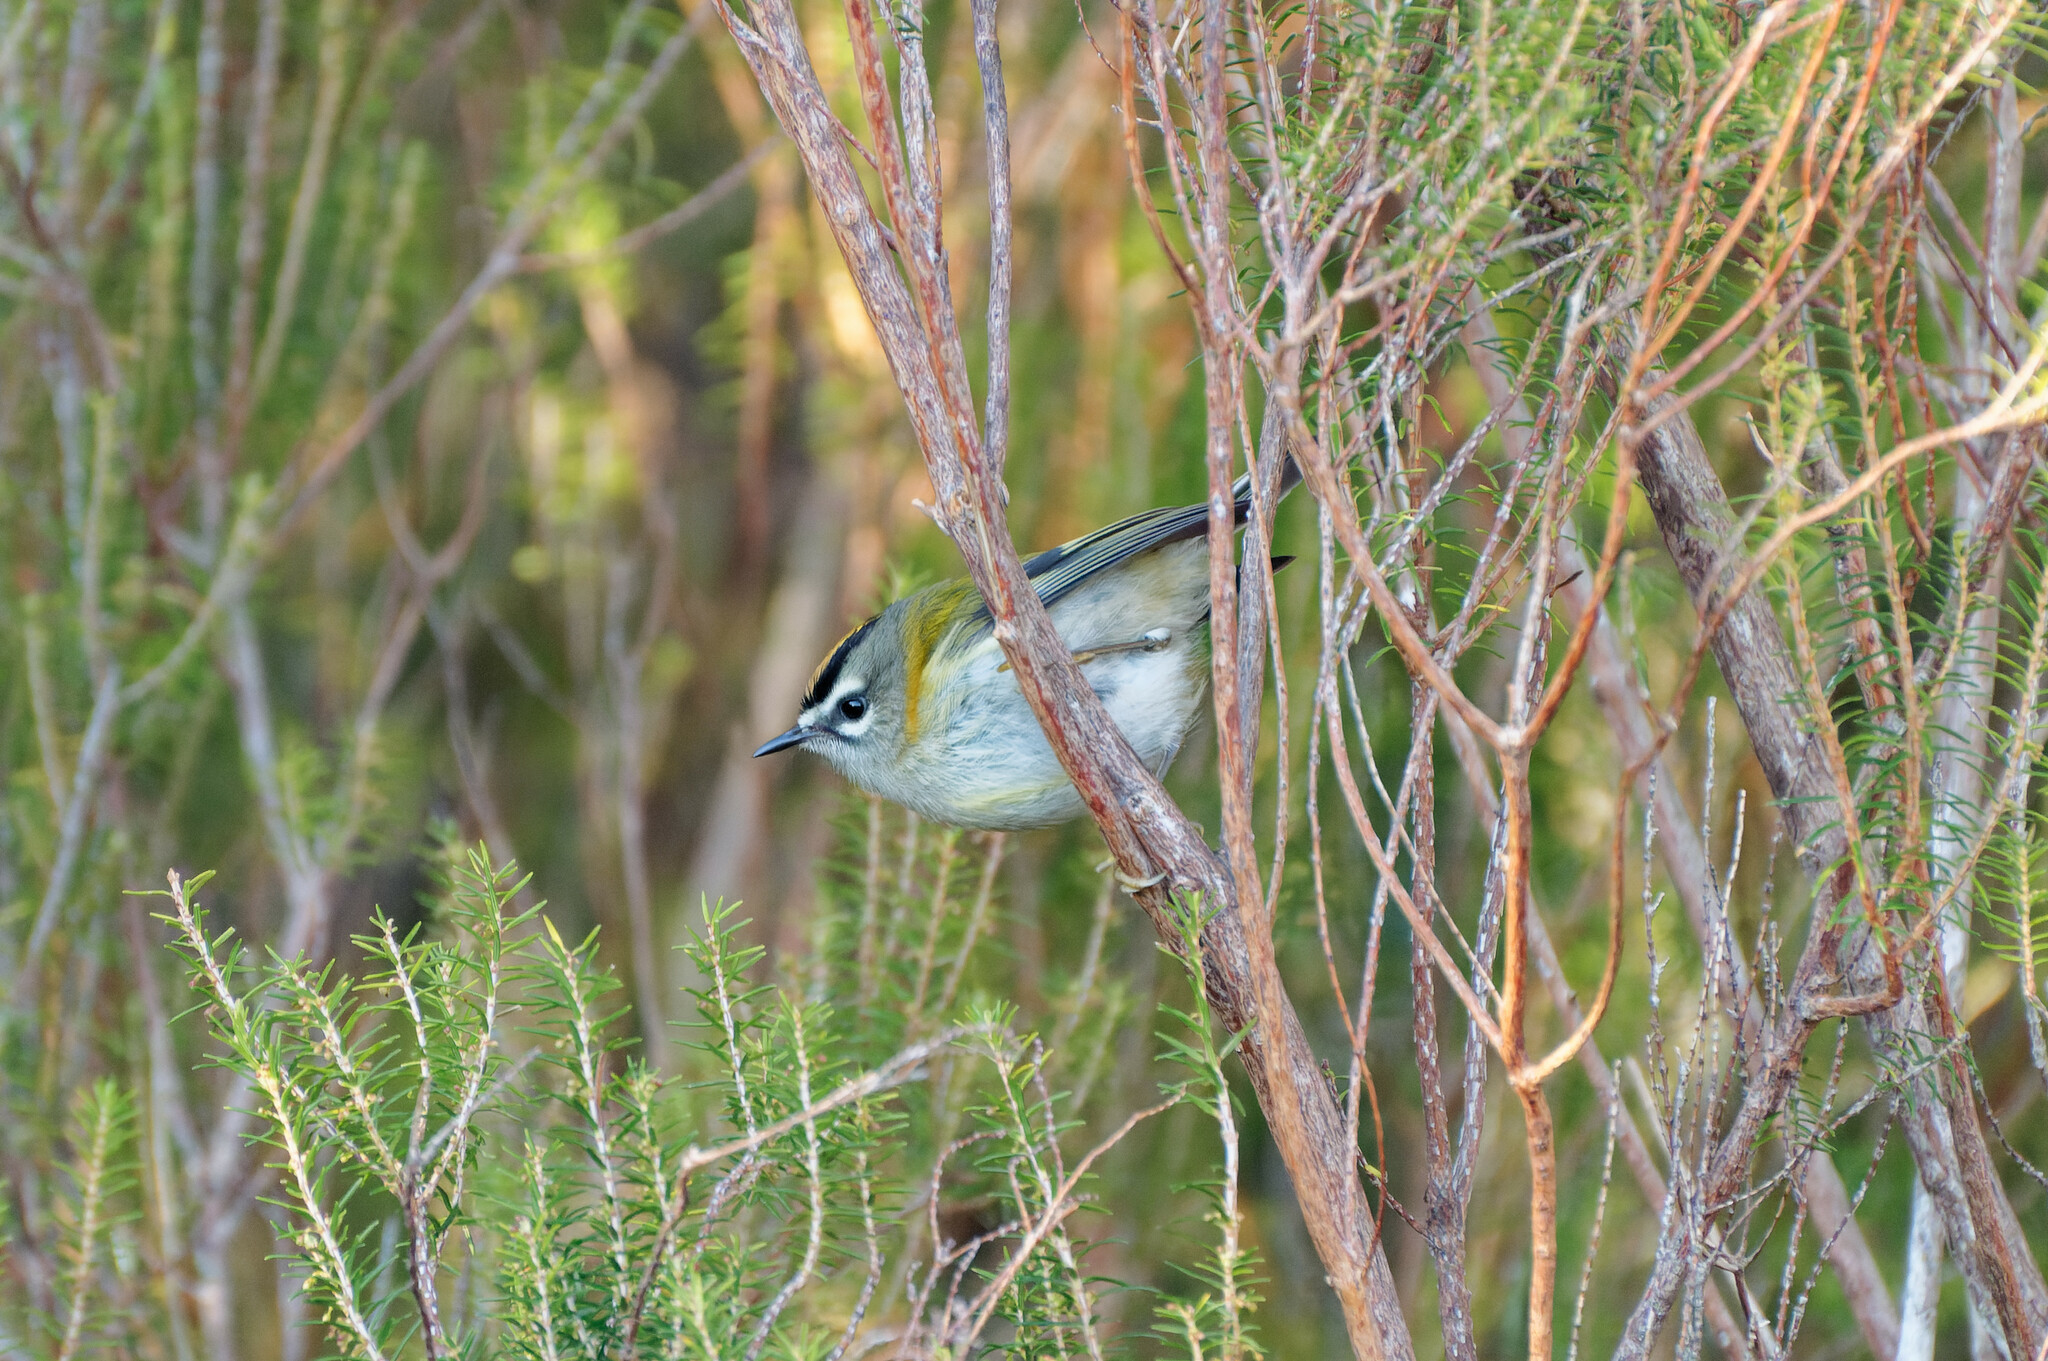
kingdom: Animalia
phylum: Chordata
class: Aves
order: Passeriformes
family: Regulidae
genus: Regulus
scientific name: Regulus madeirensis
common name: Madeira firecrest
